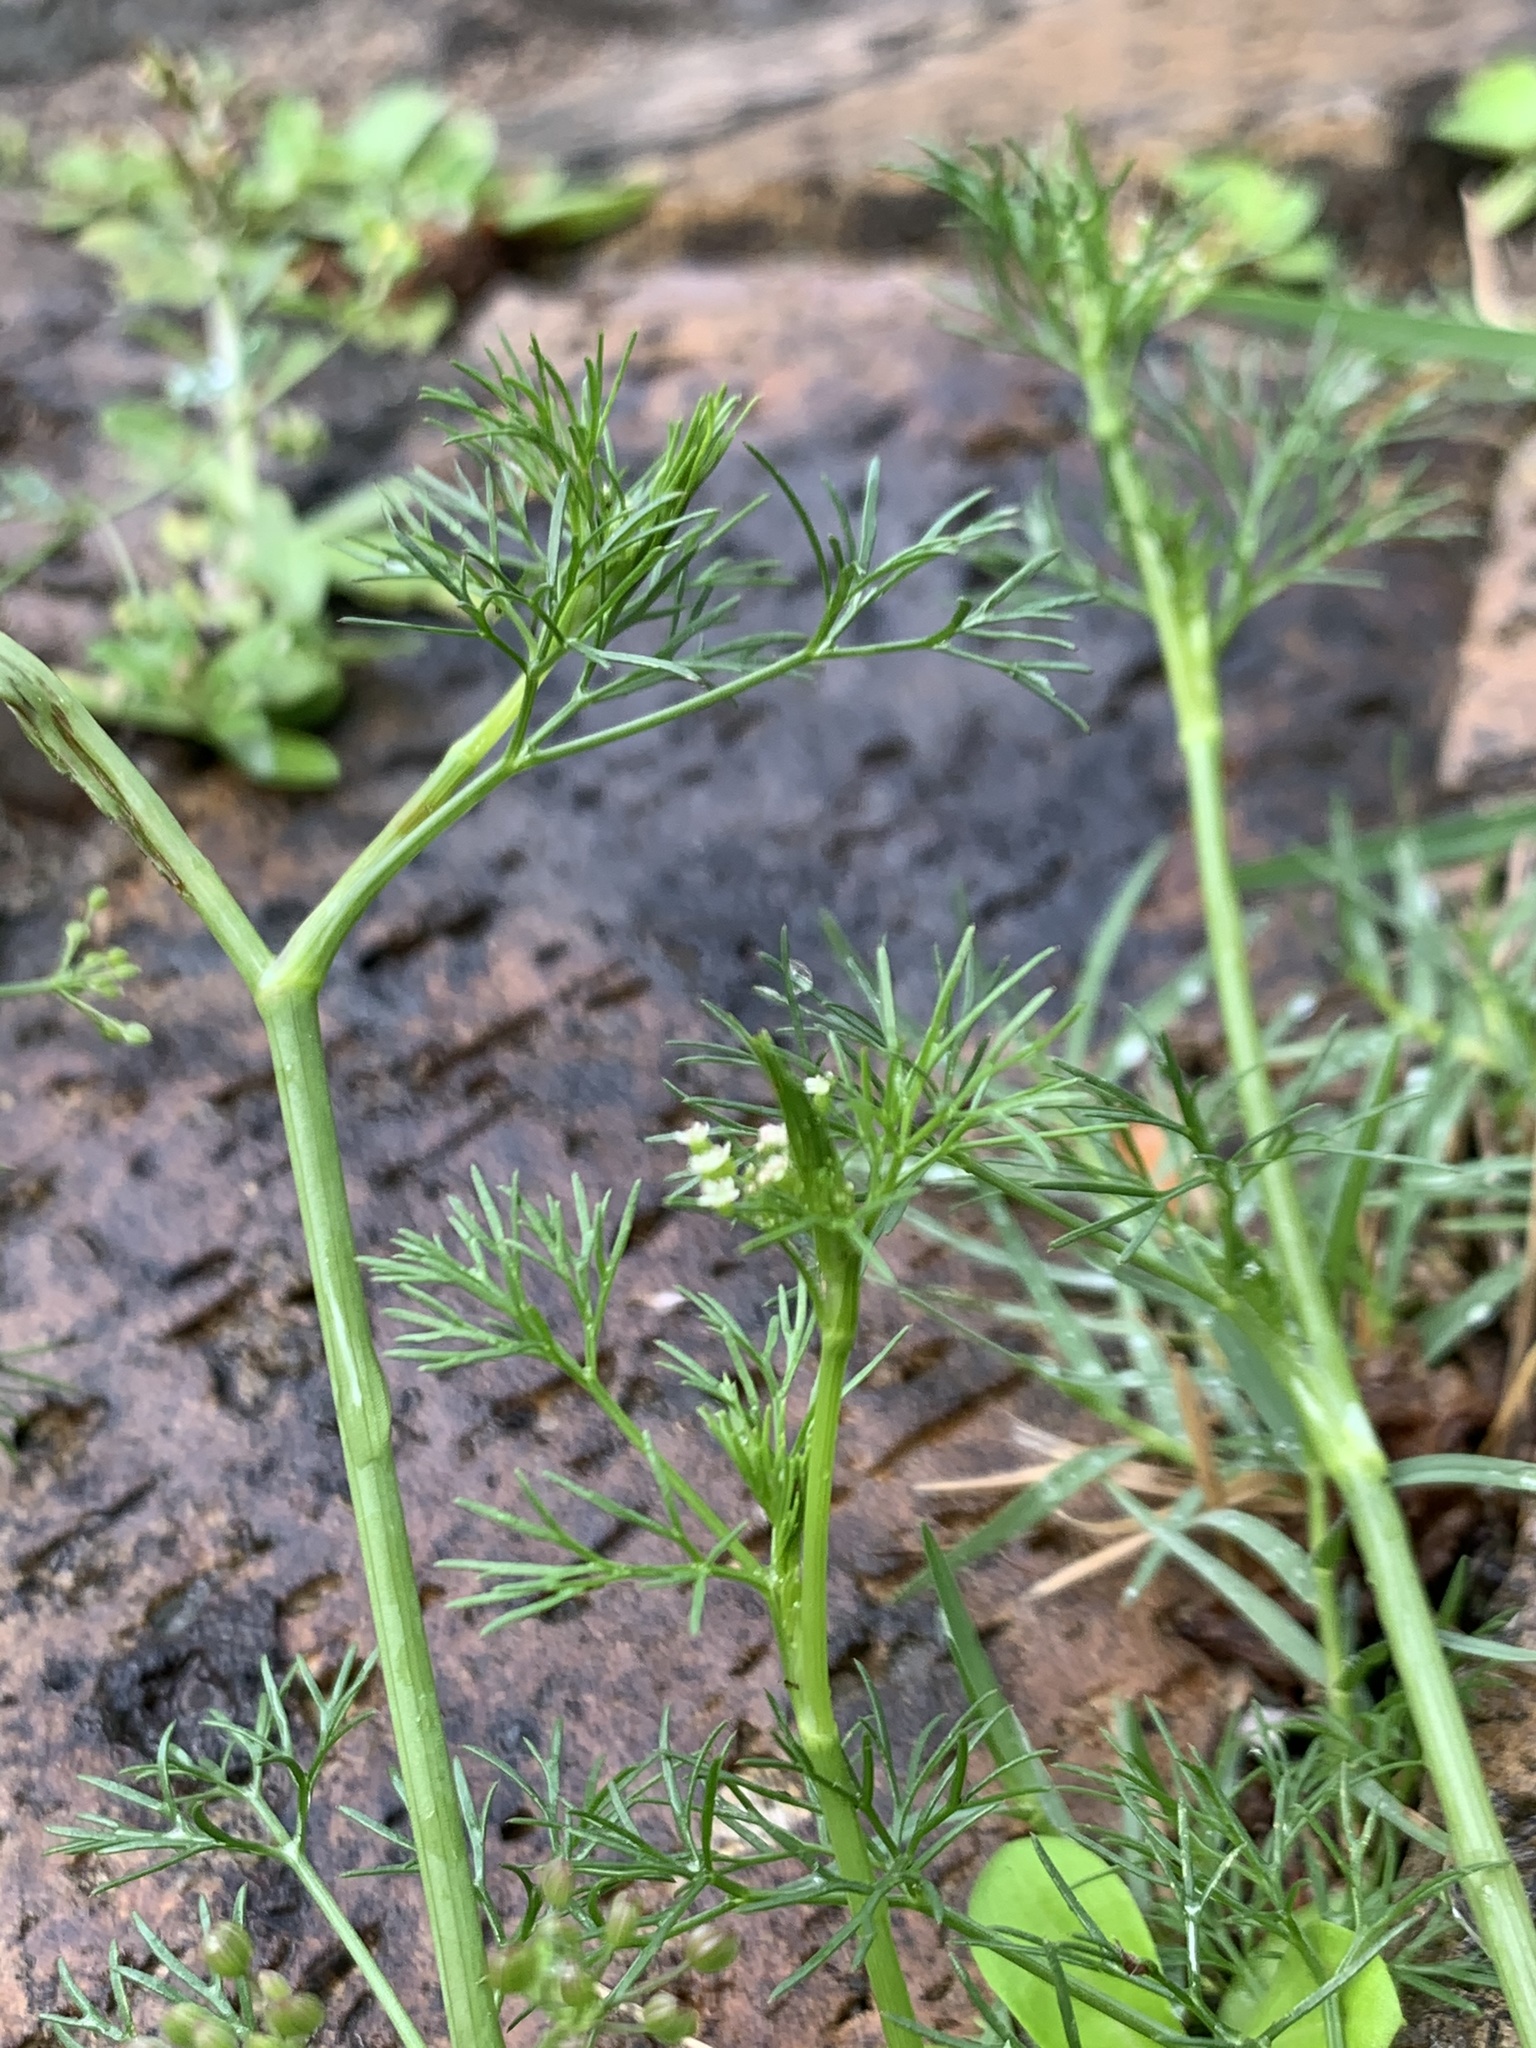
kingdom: Plantae
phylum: Tracheophyta
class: Magnoliopsida
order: Apiales
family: Apiaceae
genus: Cyclospermum
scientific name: Cyclospermum leptophyllum
